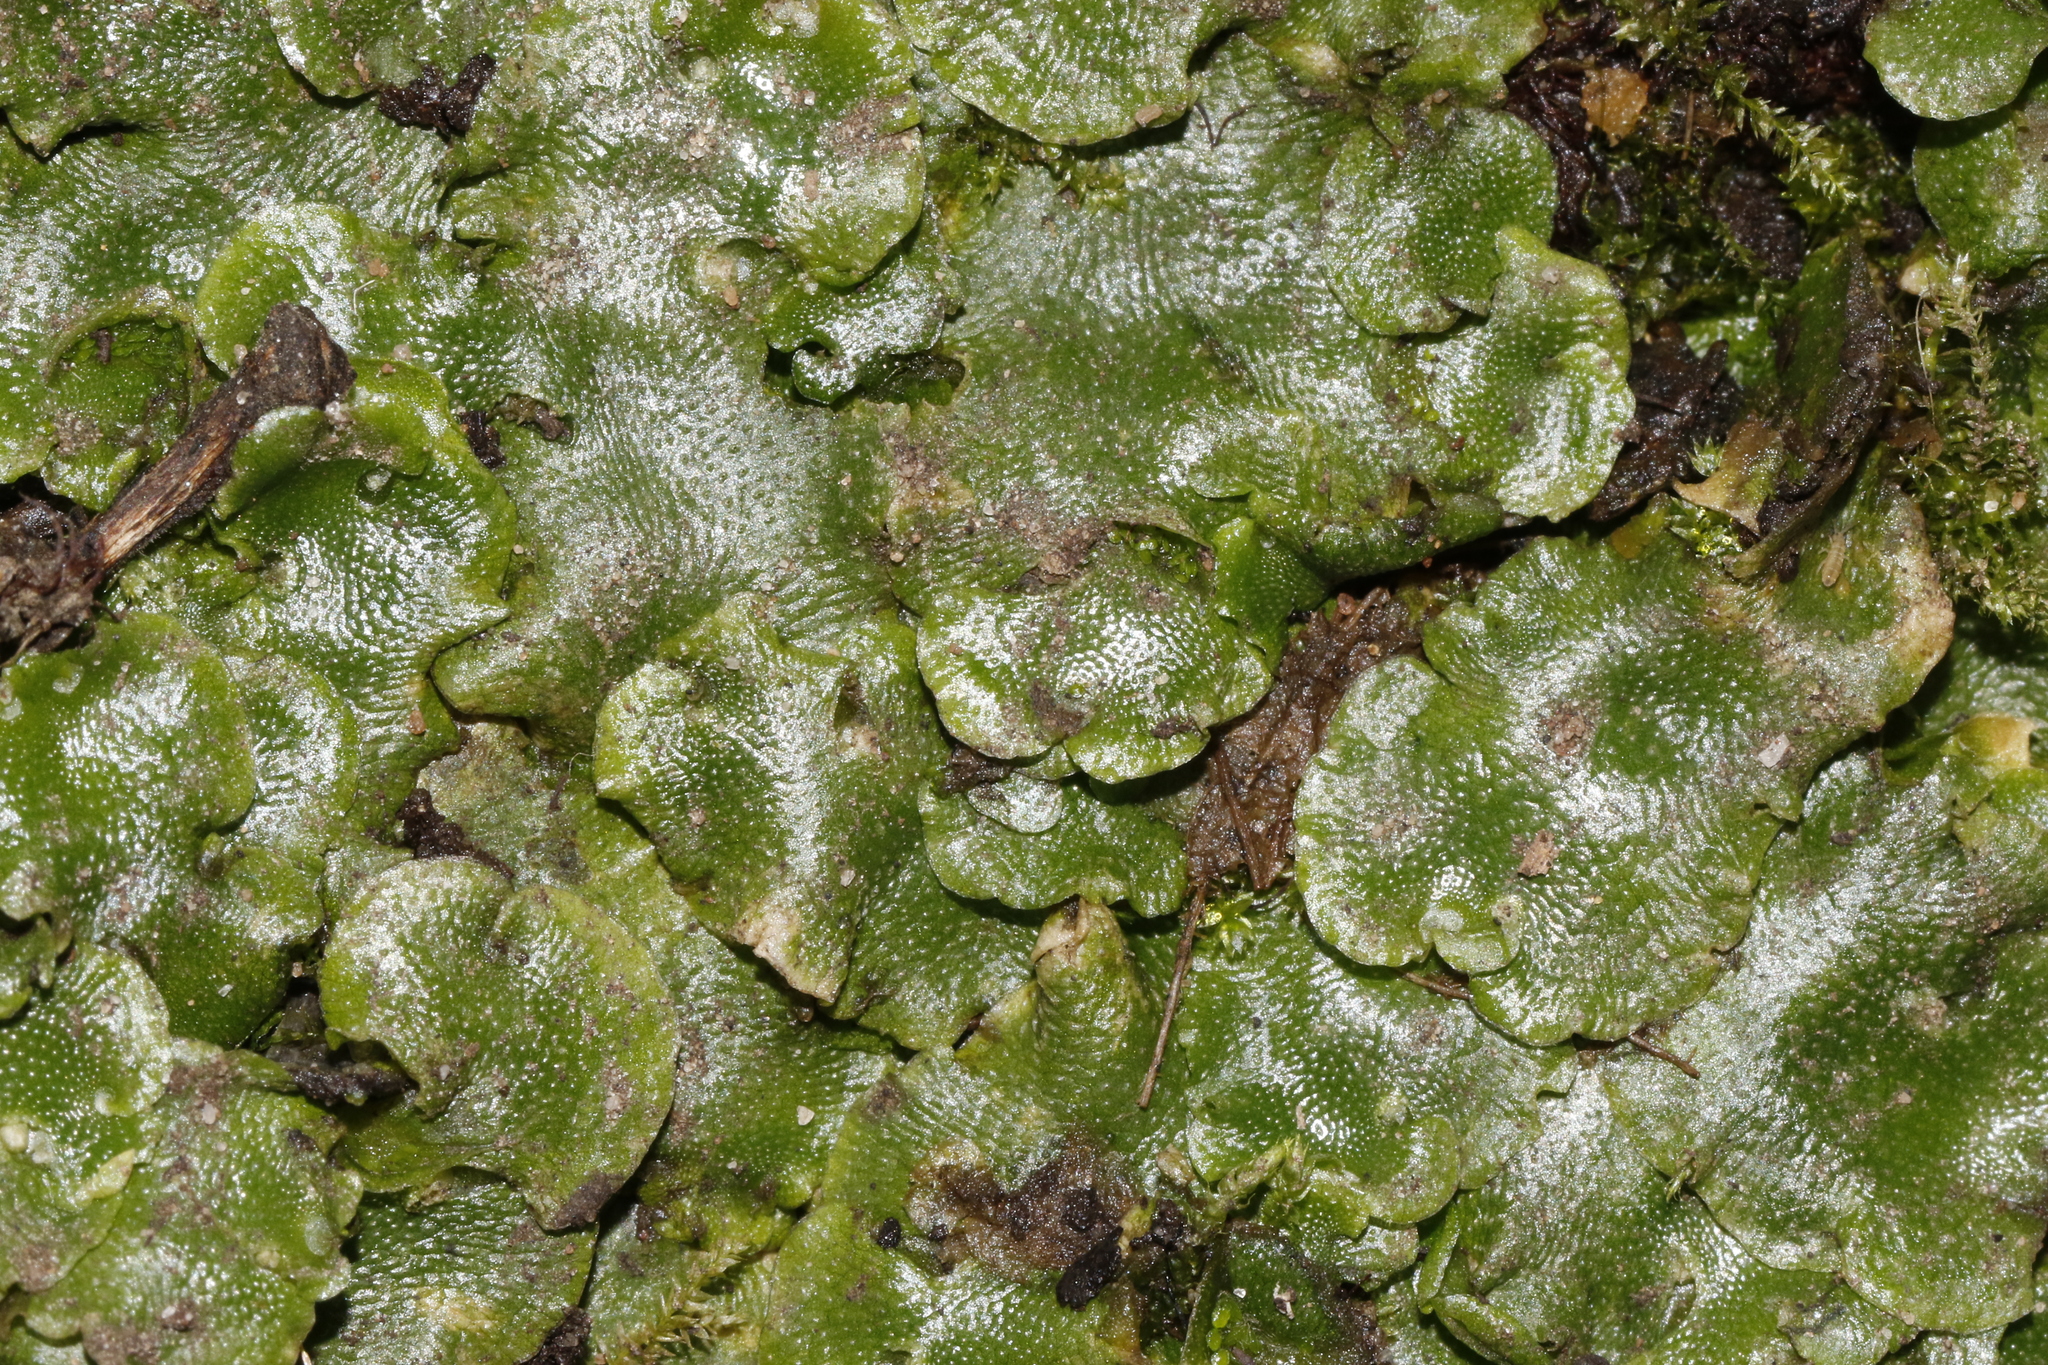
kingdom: Plantae
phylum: Marchantiophyta
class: Marchantiopsida
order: Marchantiales
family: Conocephalaceae
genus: Conocephalum
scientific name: Conocephalum conicum
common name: Great scented liverwort
